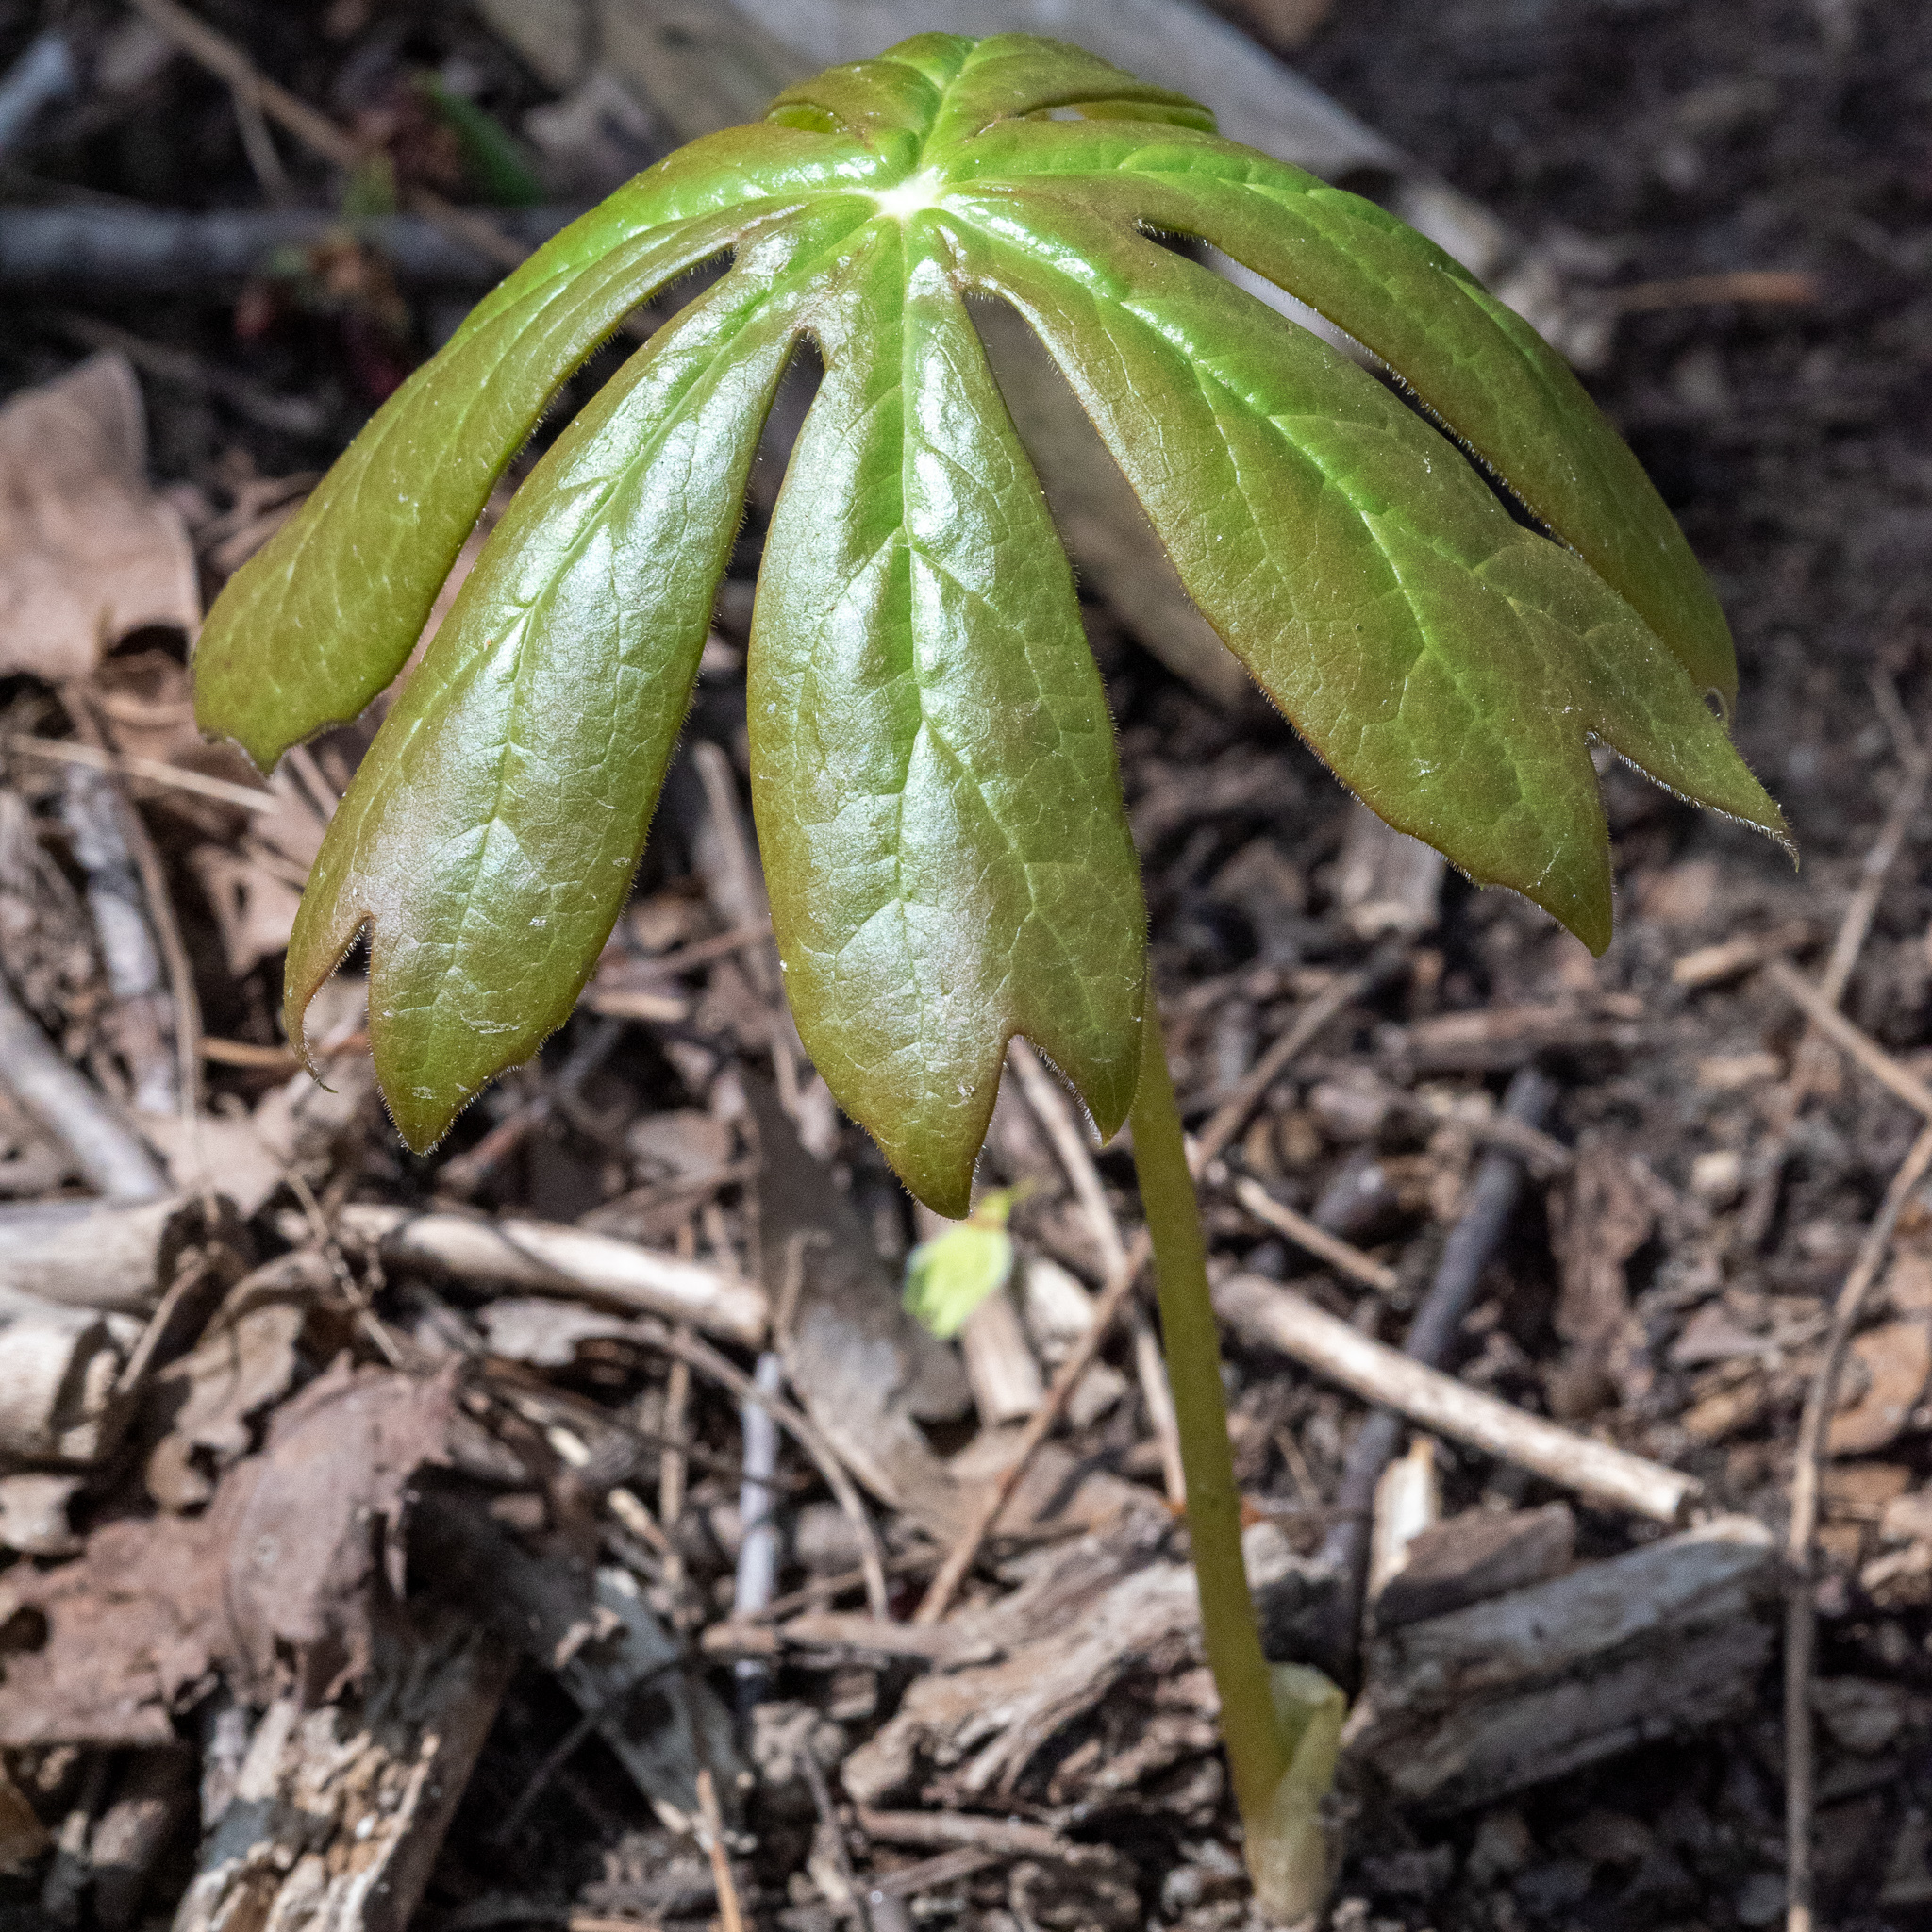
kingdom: Plantae
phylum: Tracheophyta
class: Magnoliopsida
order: Ranunculales
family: Berberidaceae
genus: Podophyllum
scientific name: Podophyllum peltatum
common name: Wild mandrake
